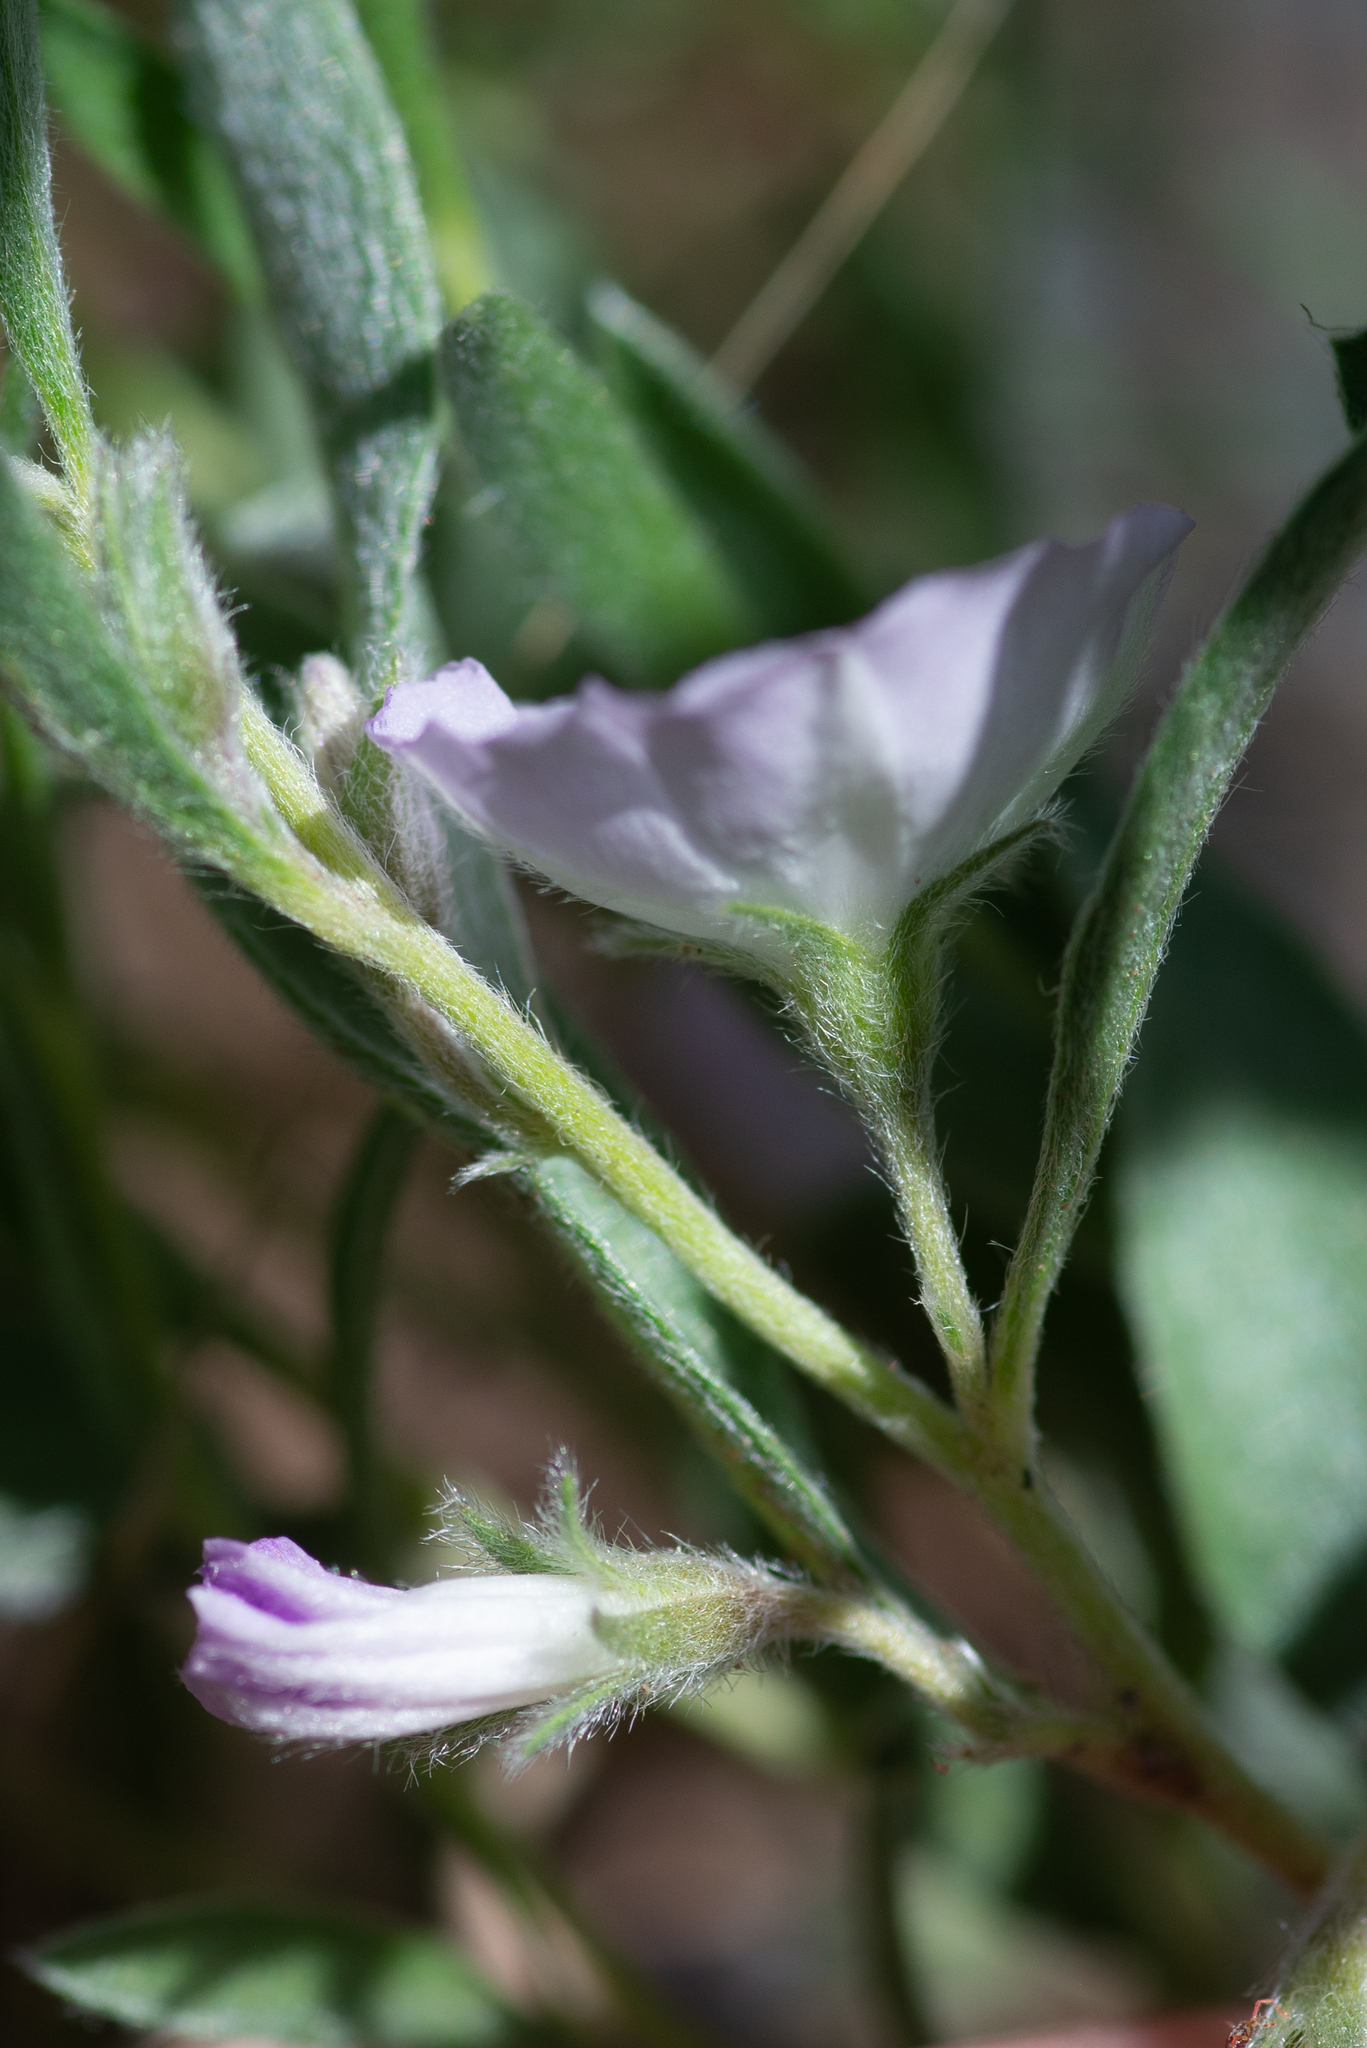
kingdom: Plantae
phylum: Tracheophyta
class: Magnoliopsida
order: Solanales
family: Convolvulaceae
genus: Evolvulus
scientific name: Evolvulus nuttallianus
